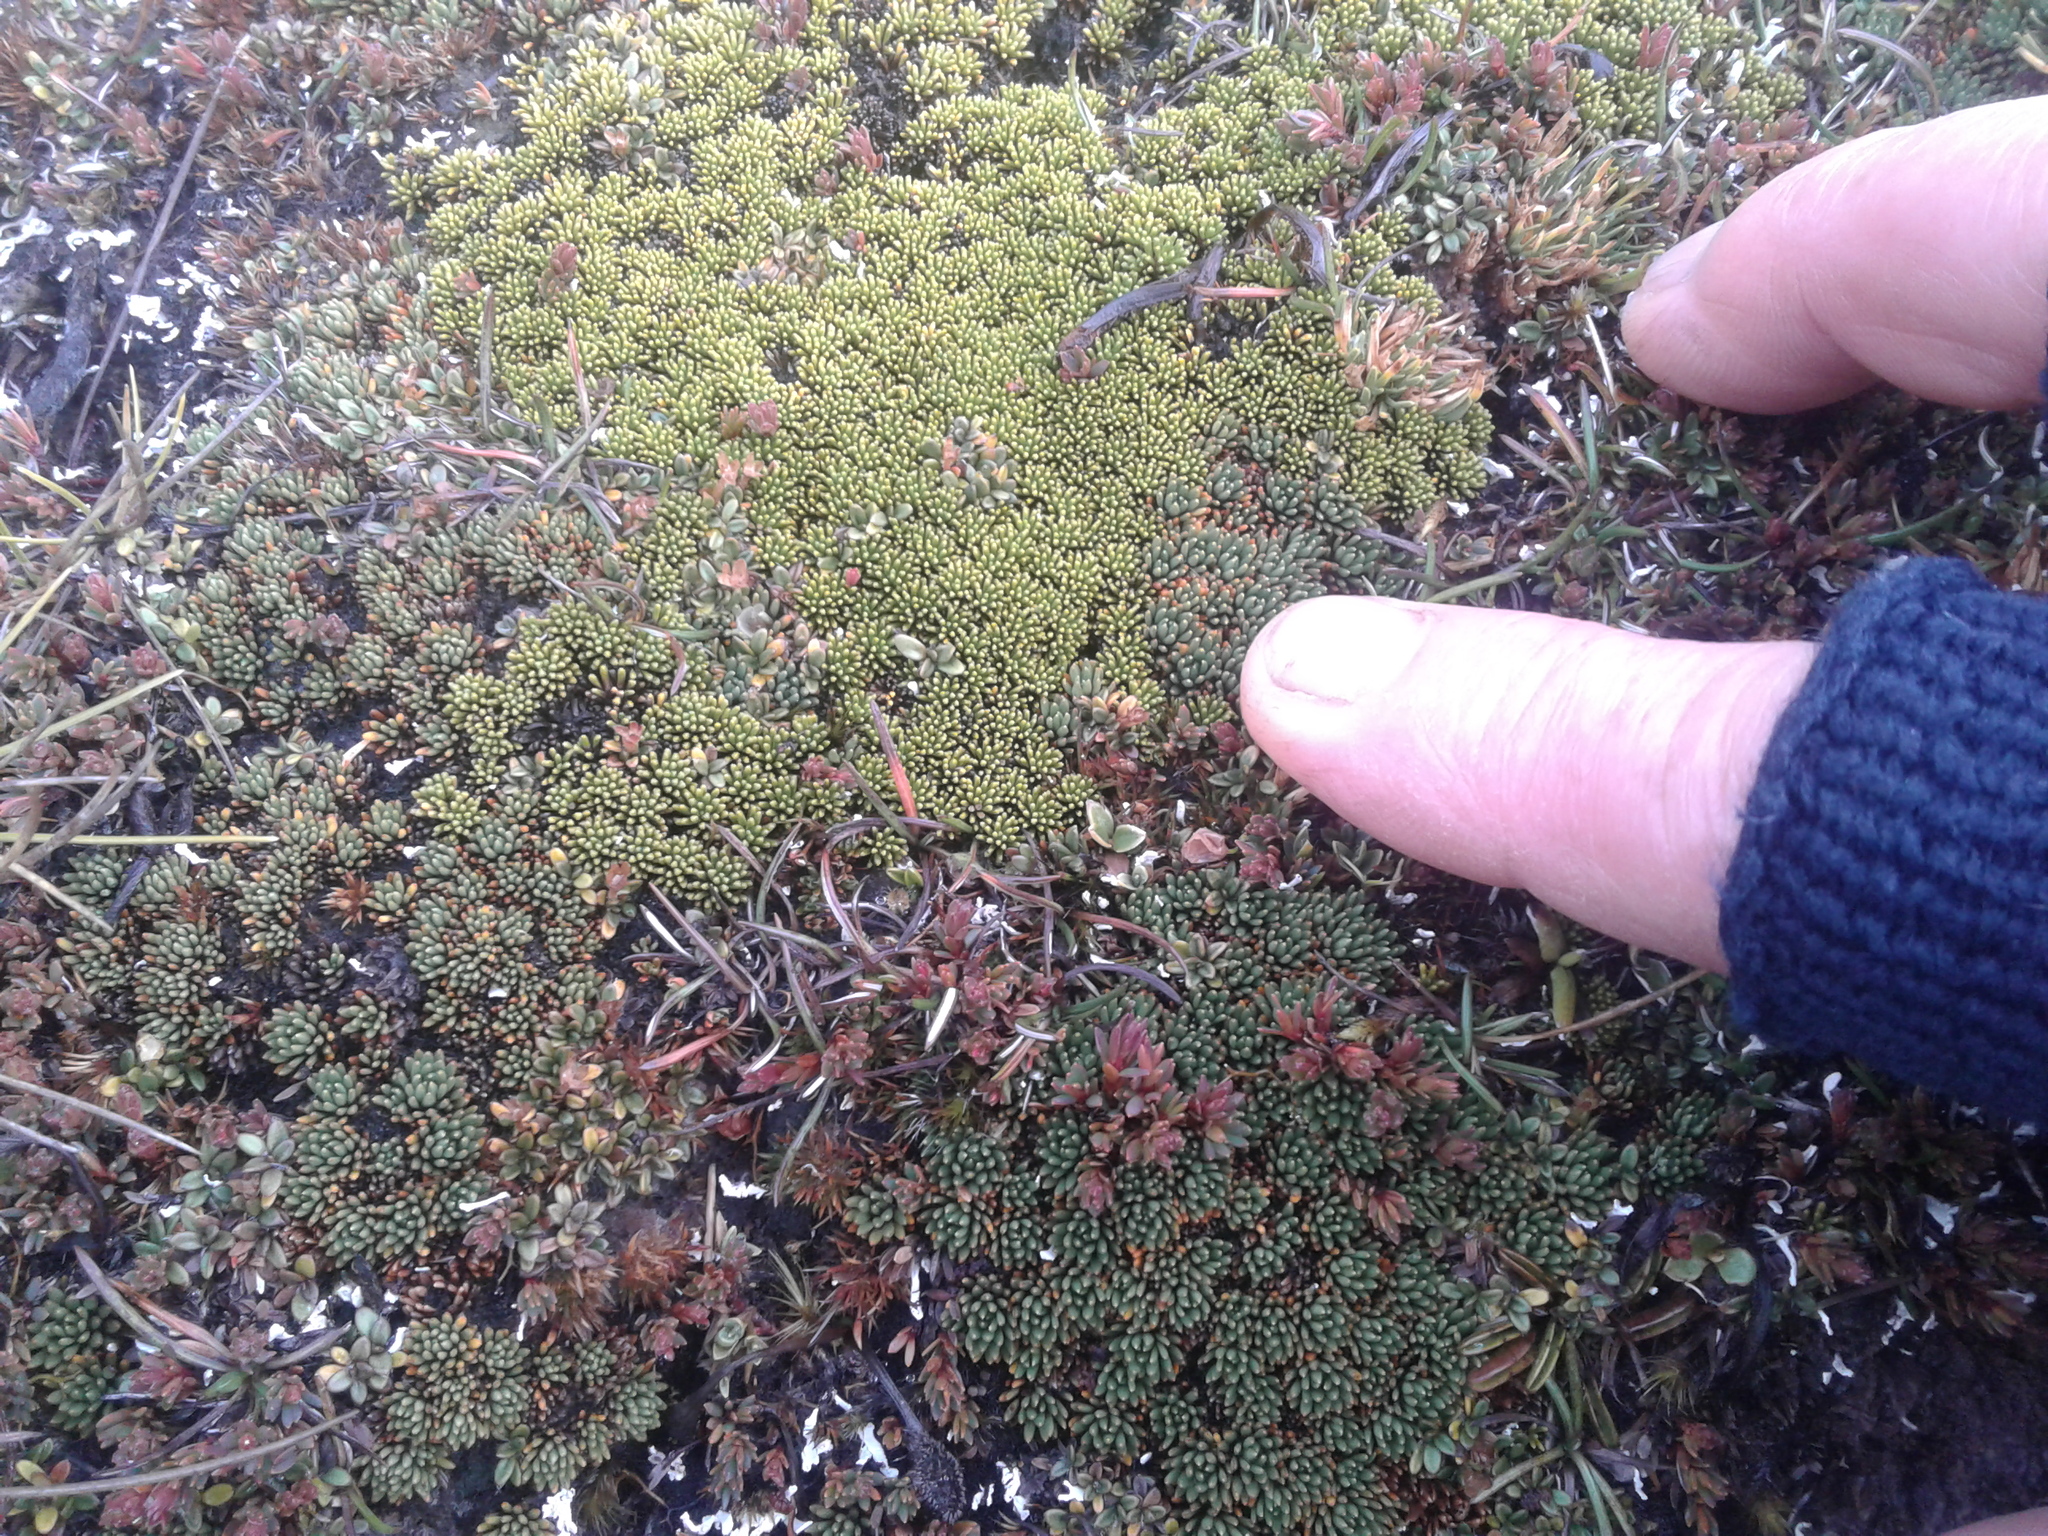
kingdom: Plantae
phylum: Tracheophyta
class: Magnoliopsida
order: Asterales
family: Stylidiaceae
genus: Phyllachne
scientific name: Phyllachne colensoi
